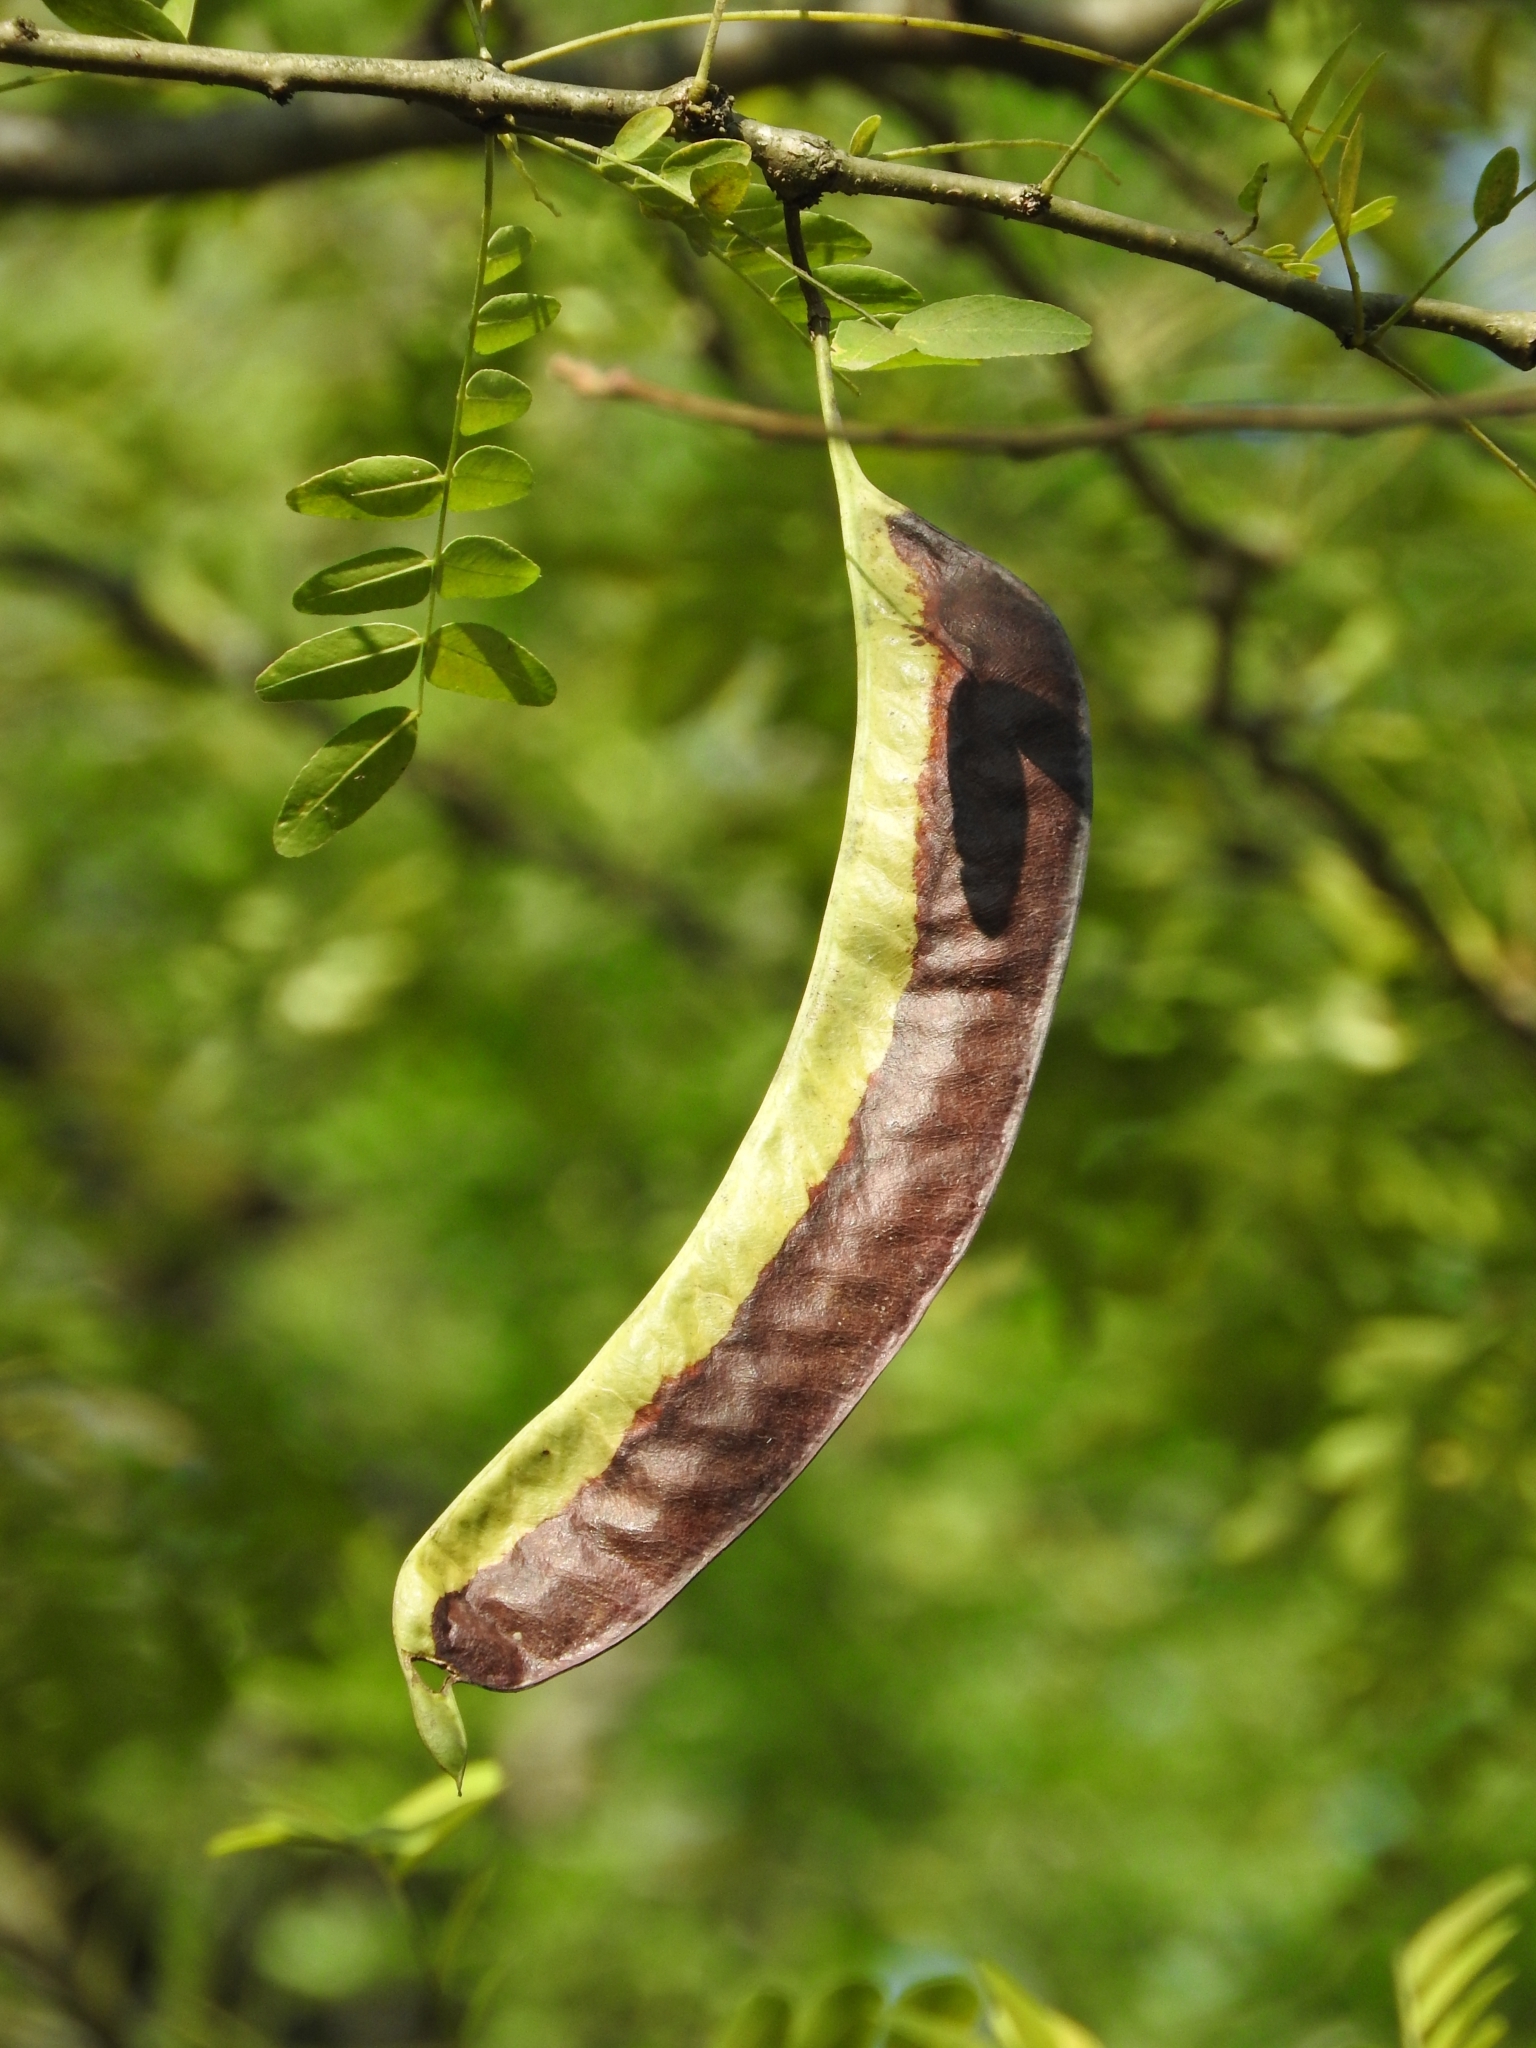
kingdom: Plantae
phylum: Tracheophyta
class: Magnoliopsida
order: Fabales
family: Fabaceae
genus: Gleditsia
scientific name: Gleditsia triacanthos
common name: Common honeylocust
